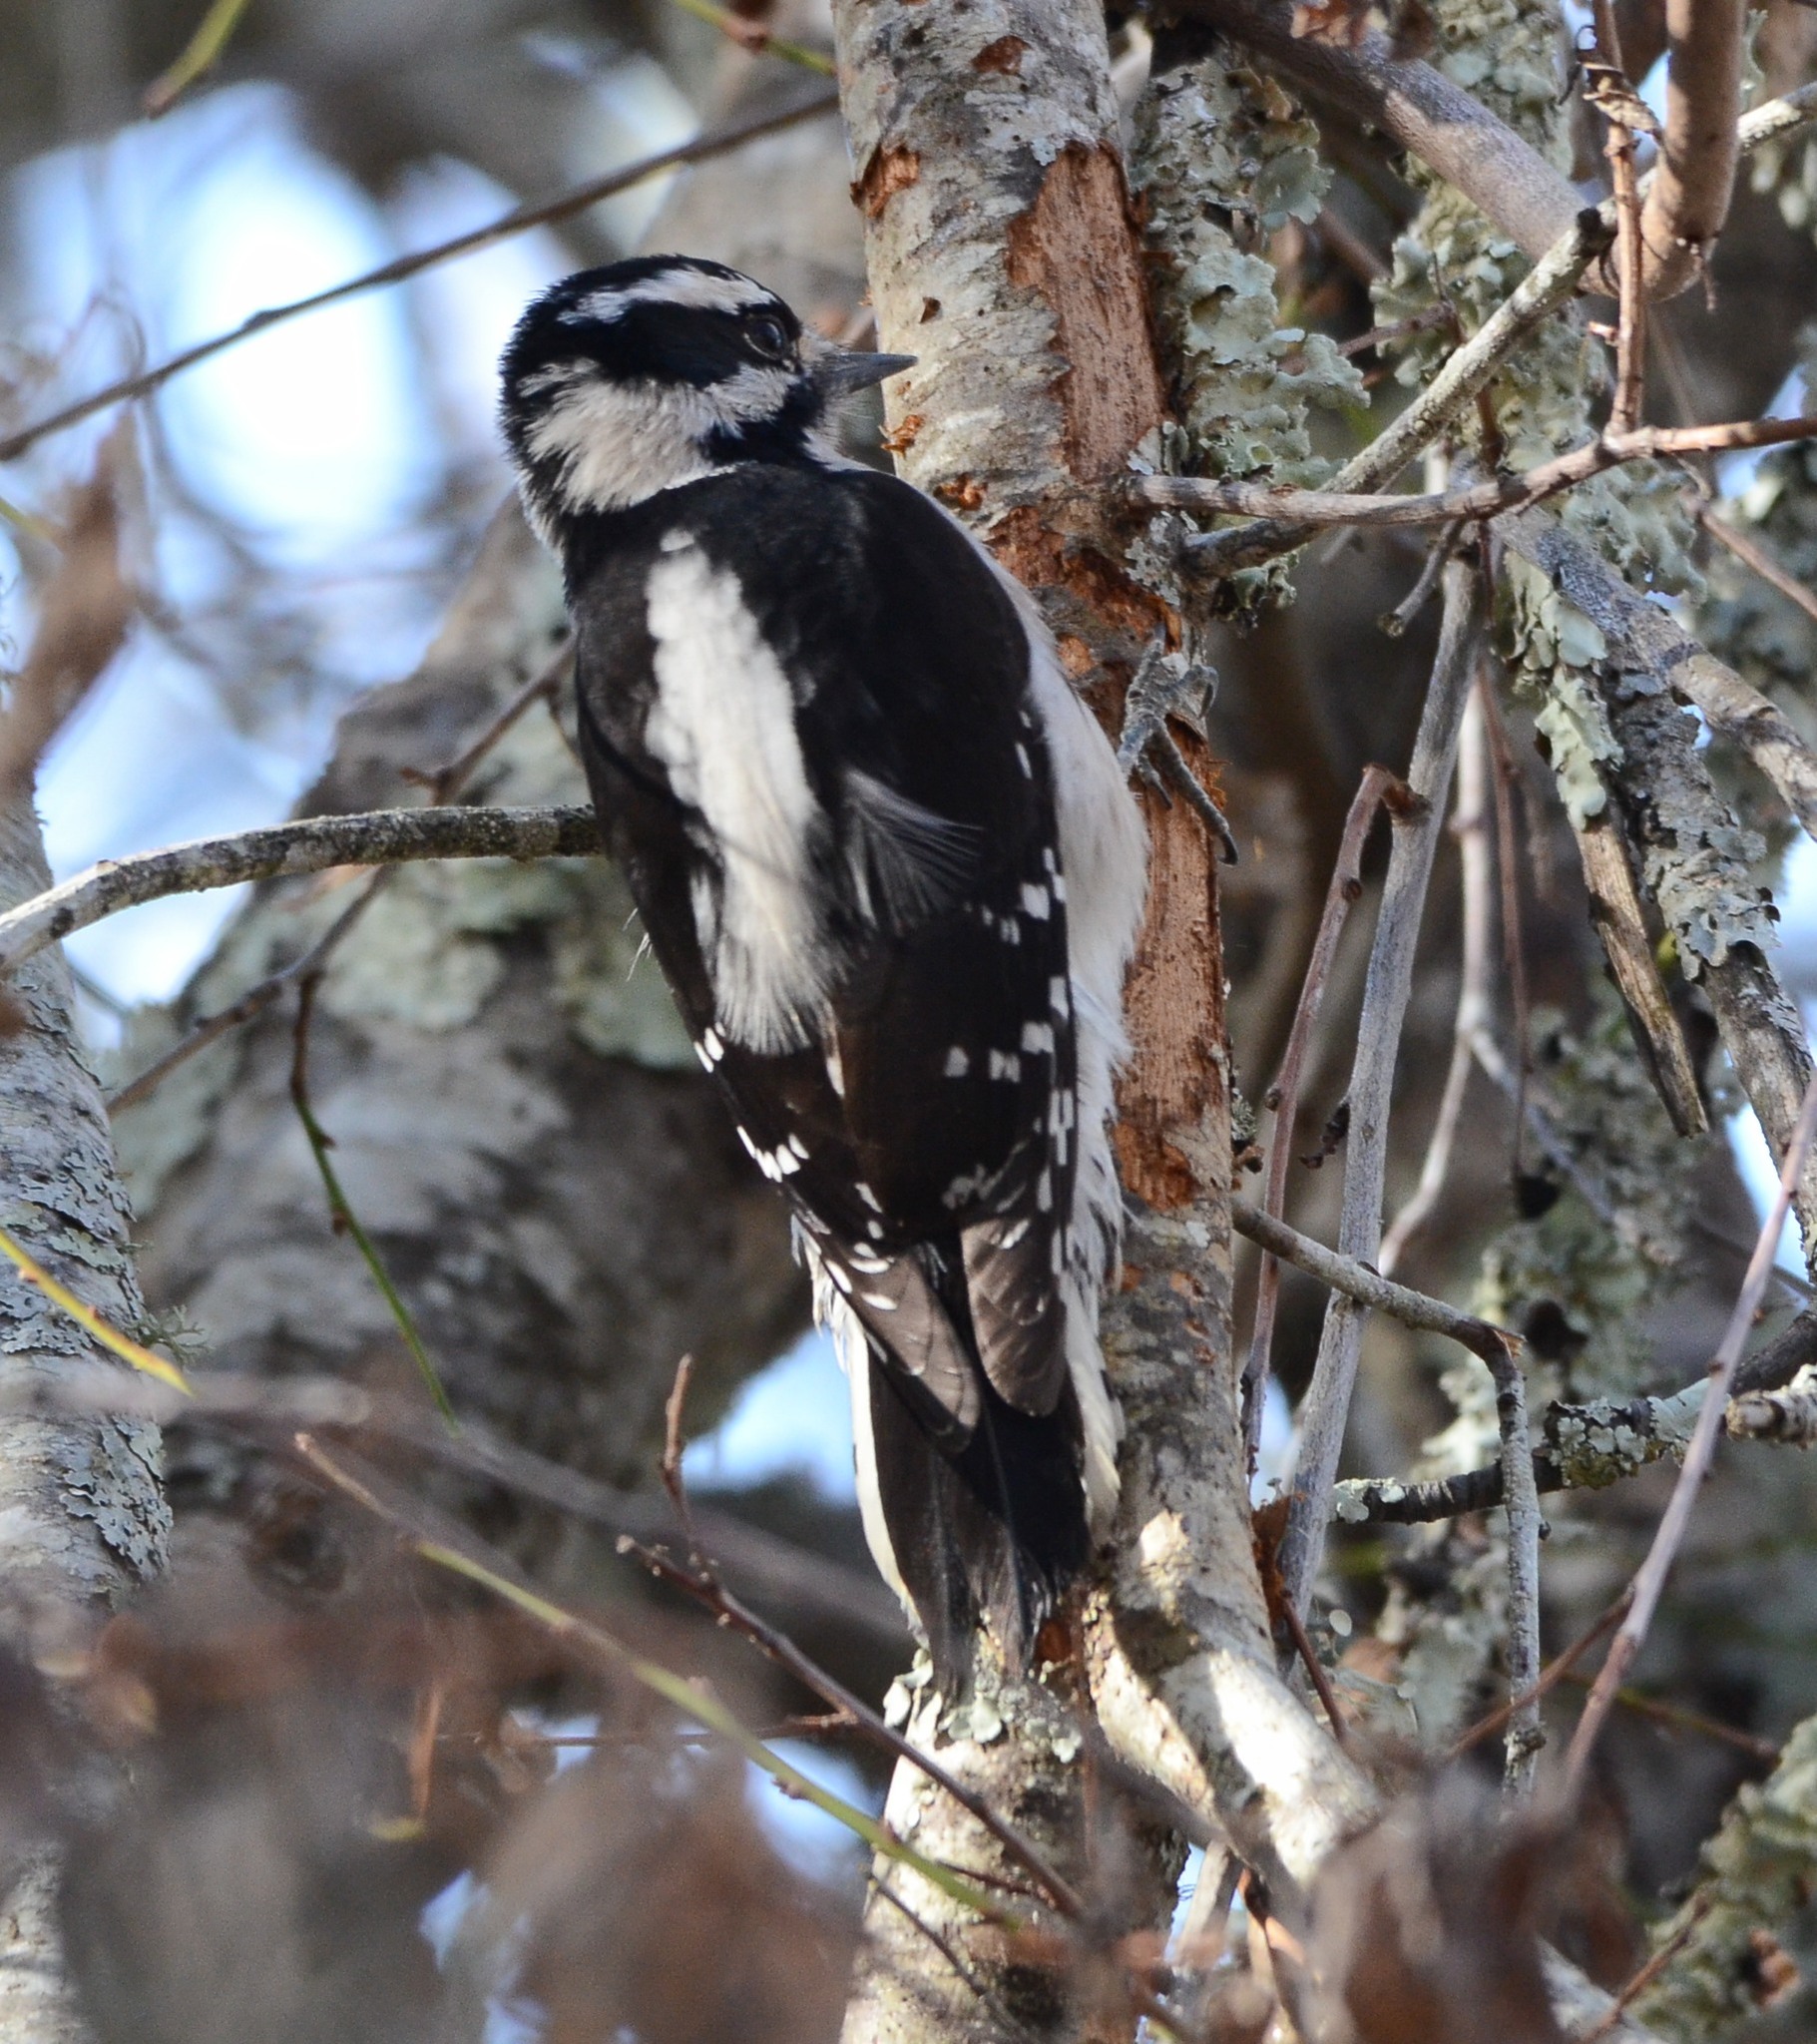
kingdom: Animalia
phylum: Chordata
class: Aves
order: Piciformes
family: Picidae
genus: Dryobates
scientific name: Dryobates pubescens
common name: Downy woodpecker
